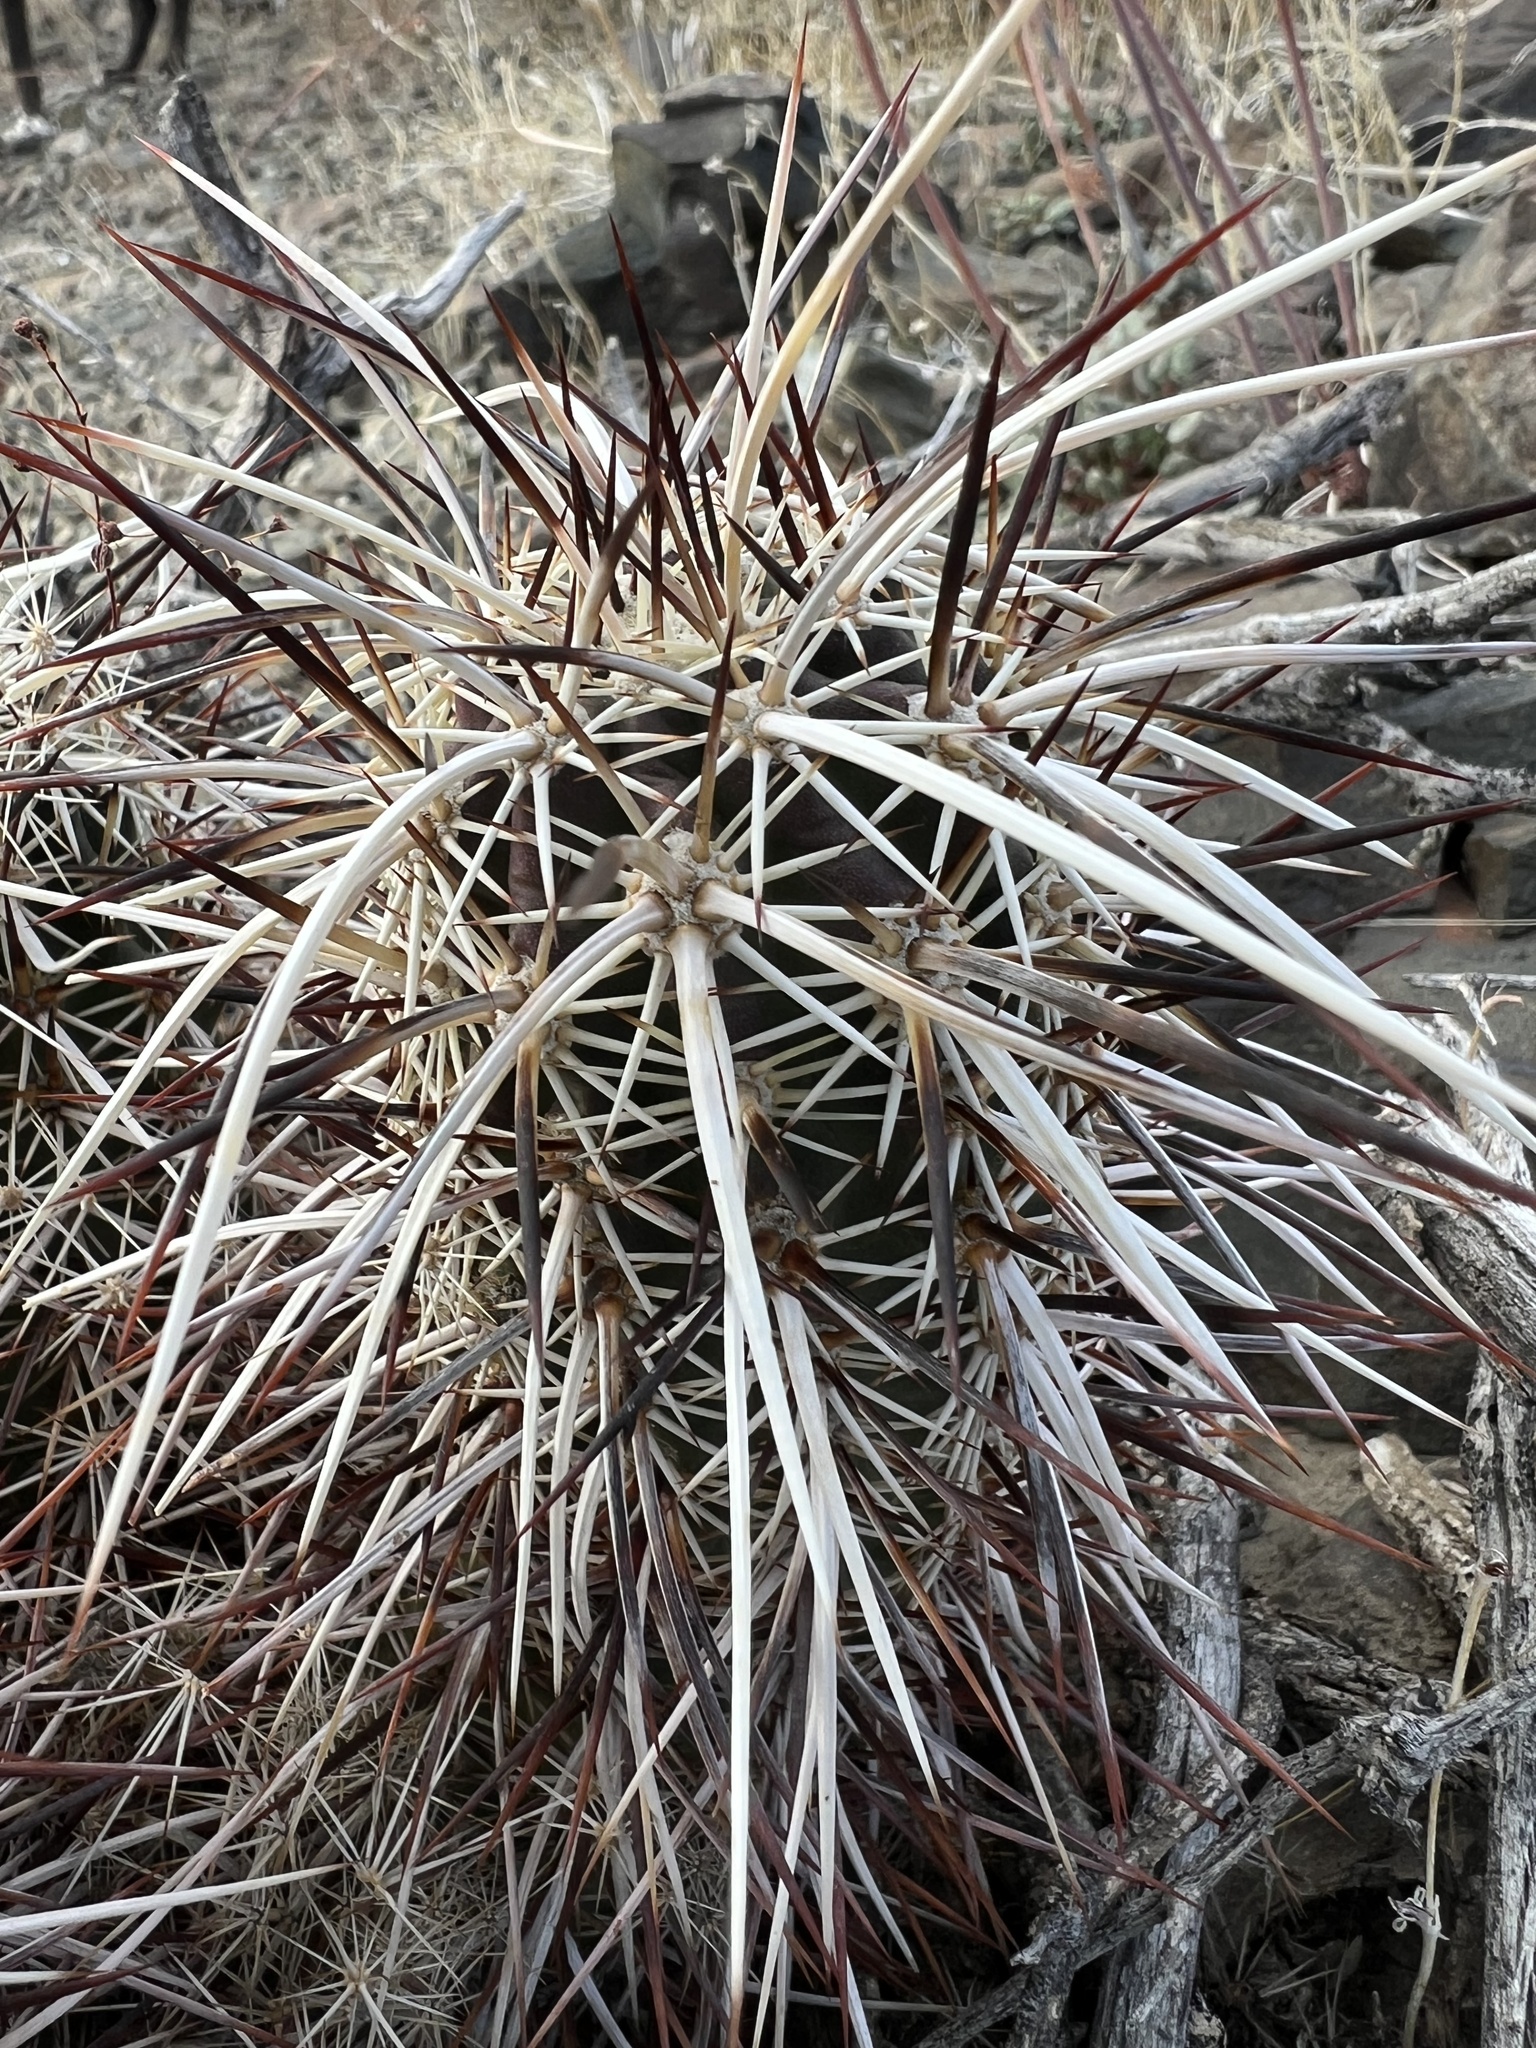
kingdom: Plantae
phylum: Tracheophyta
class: Magnoliopsida
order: Caryophyllales
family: Cactaceae
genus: Echinocereus
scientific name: Echinocereus engelmannii
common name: Engelmann's hedgehog cactus
